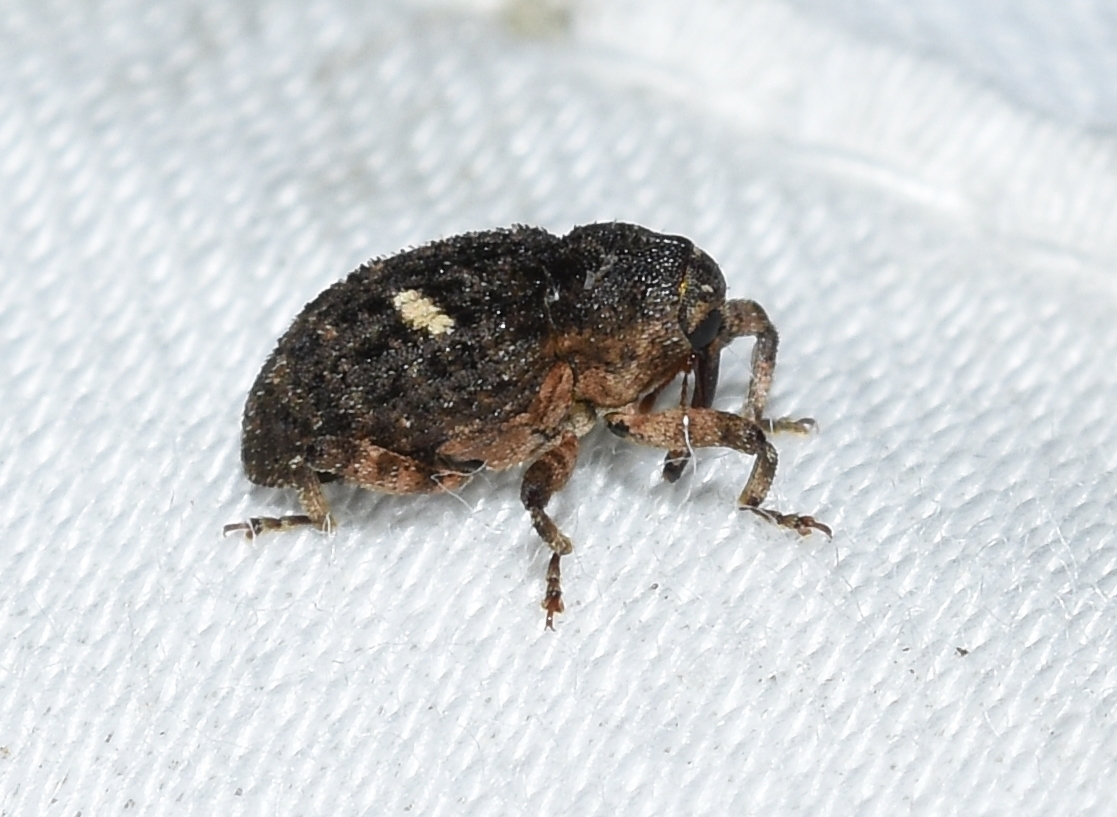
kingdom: Animalia
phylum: Arthropoda
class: Insecta
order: Coleoptera
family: Curculionidae
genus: Eubulus
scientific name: Eubulus bisignatus
